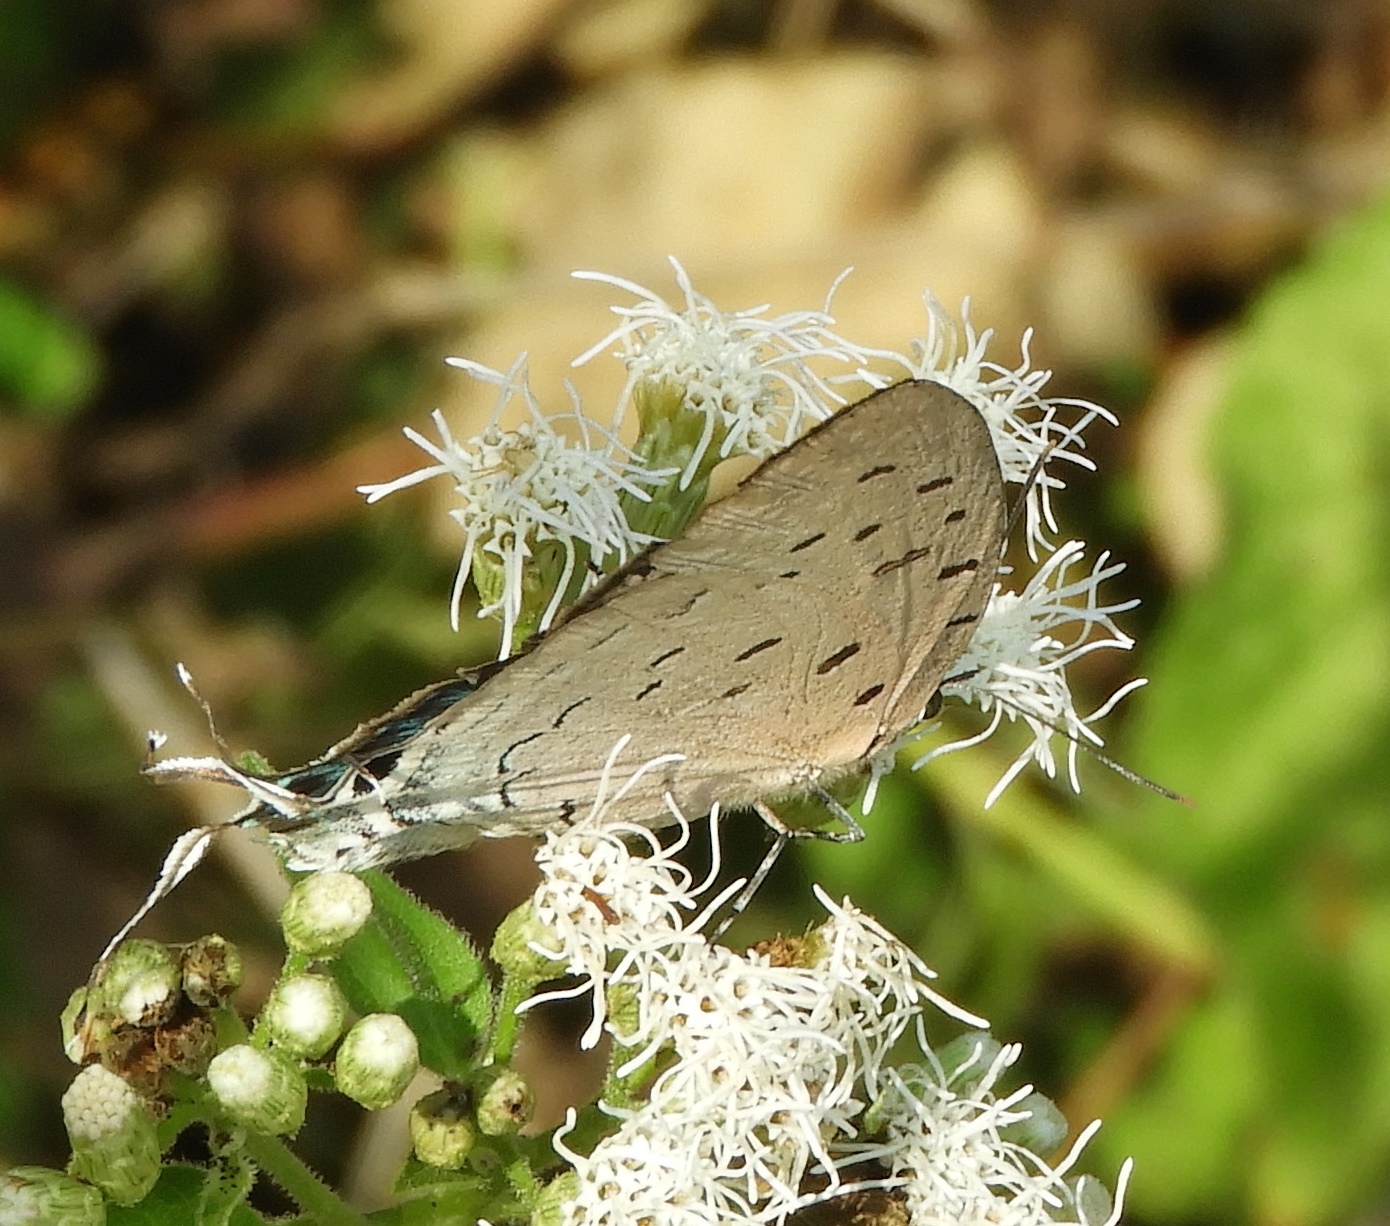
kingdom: Animalia
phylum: Arthropoda
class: Insecta
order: Lepidoptera
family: Lycaenidae
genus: Pseudolycaena
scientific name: Pseudolycaena damo
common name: Sky-blue hairstreak
